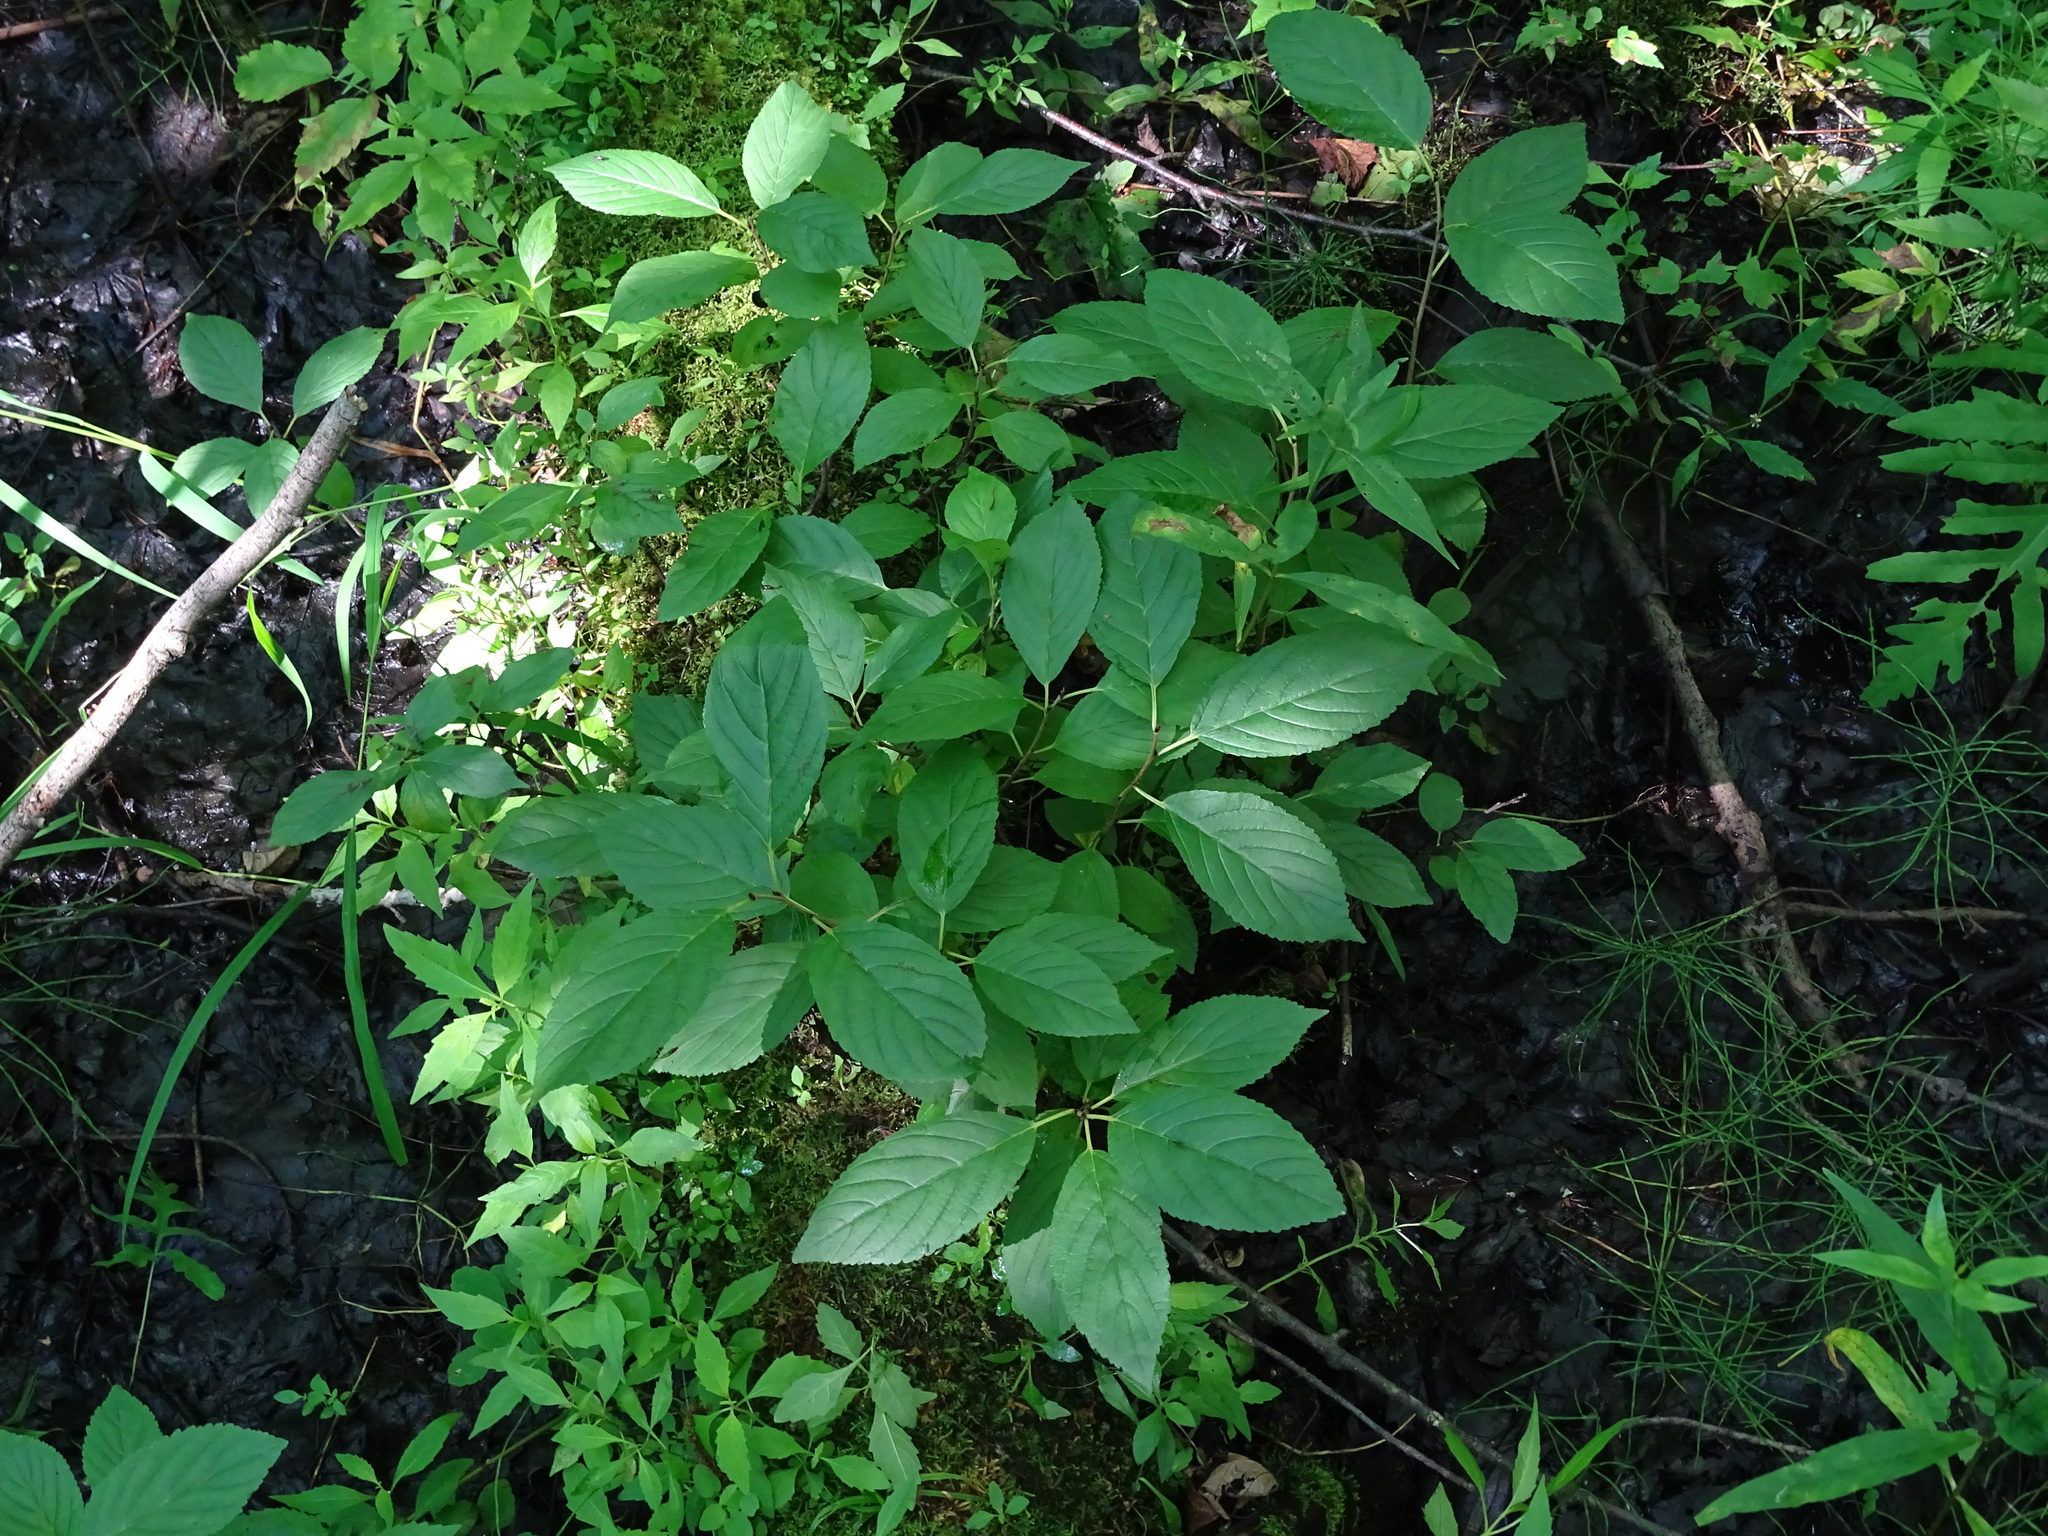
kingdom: Plantae
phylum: Tracheophyta
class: Magnoliopsida
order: Rosales
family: Rhamnaceae
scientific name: Rhamnaceae
